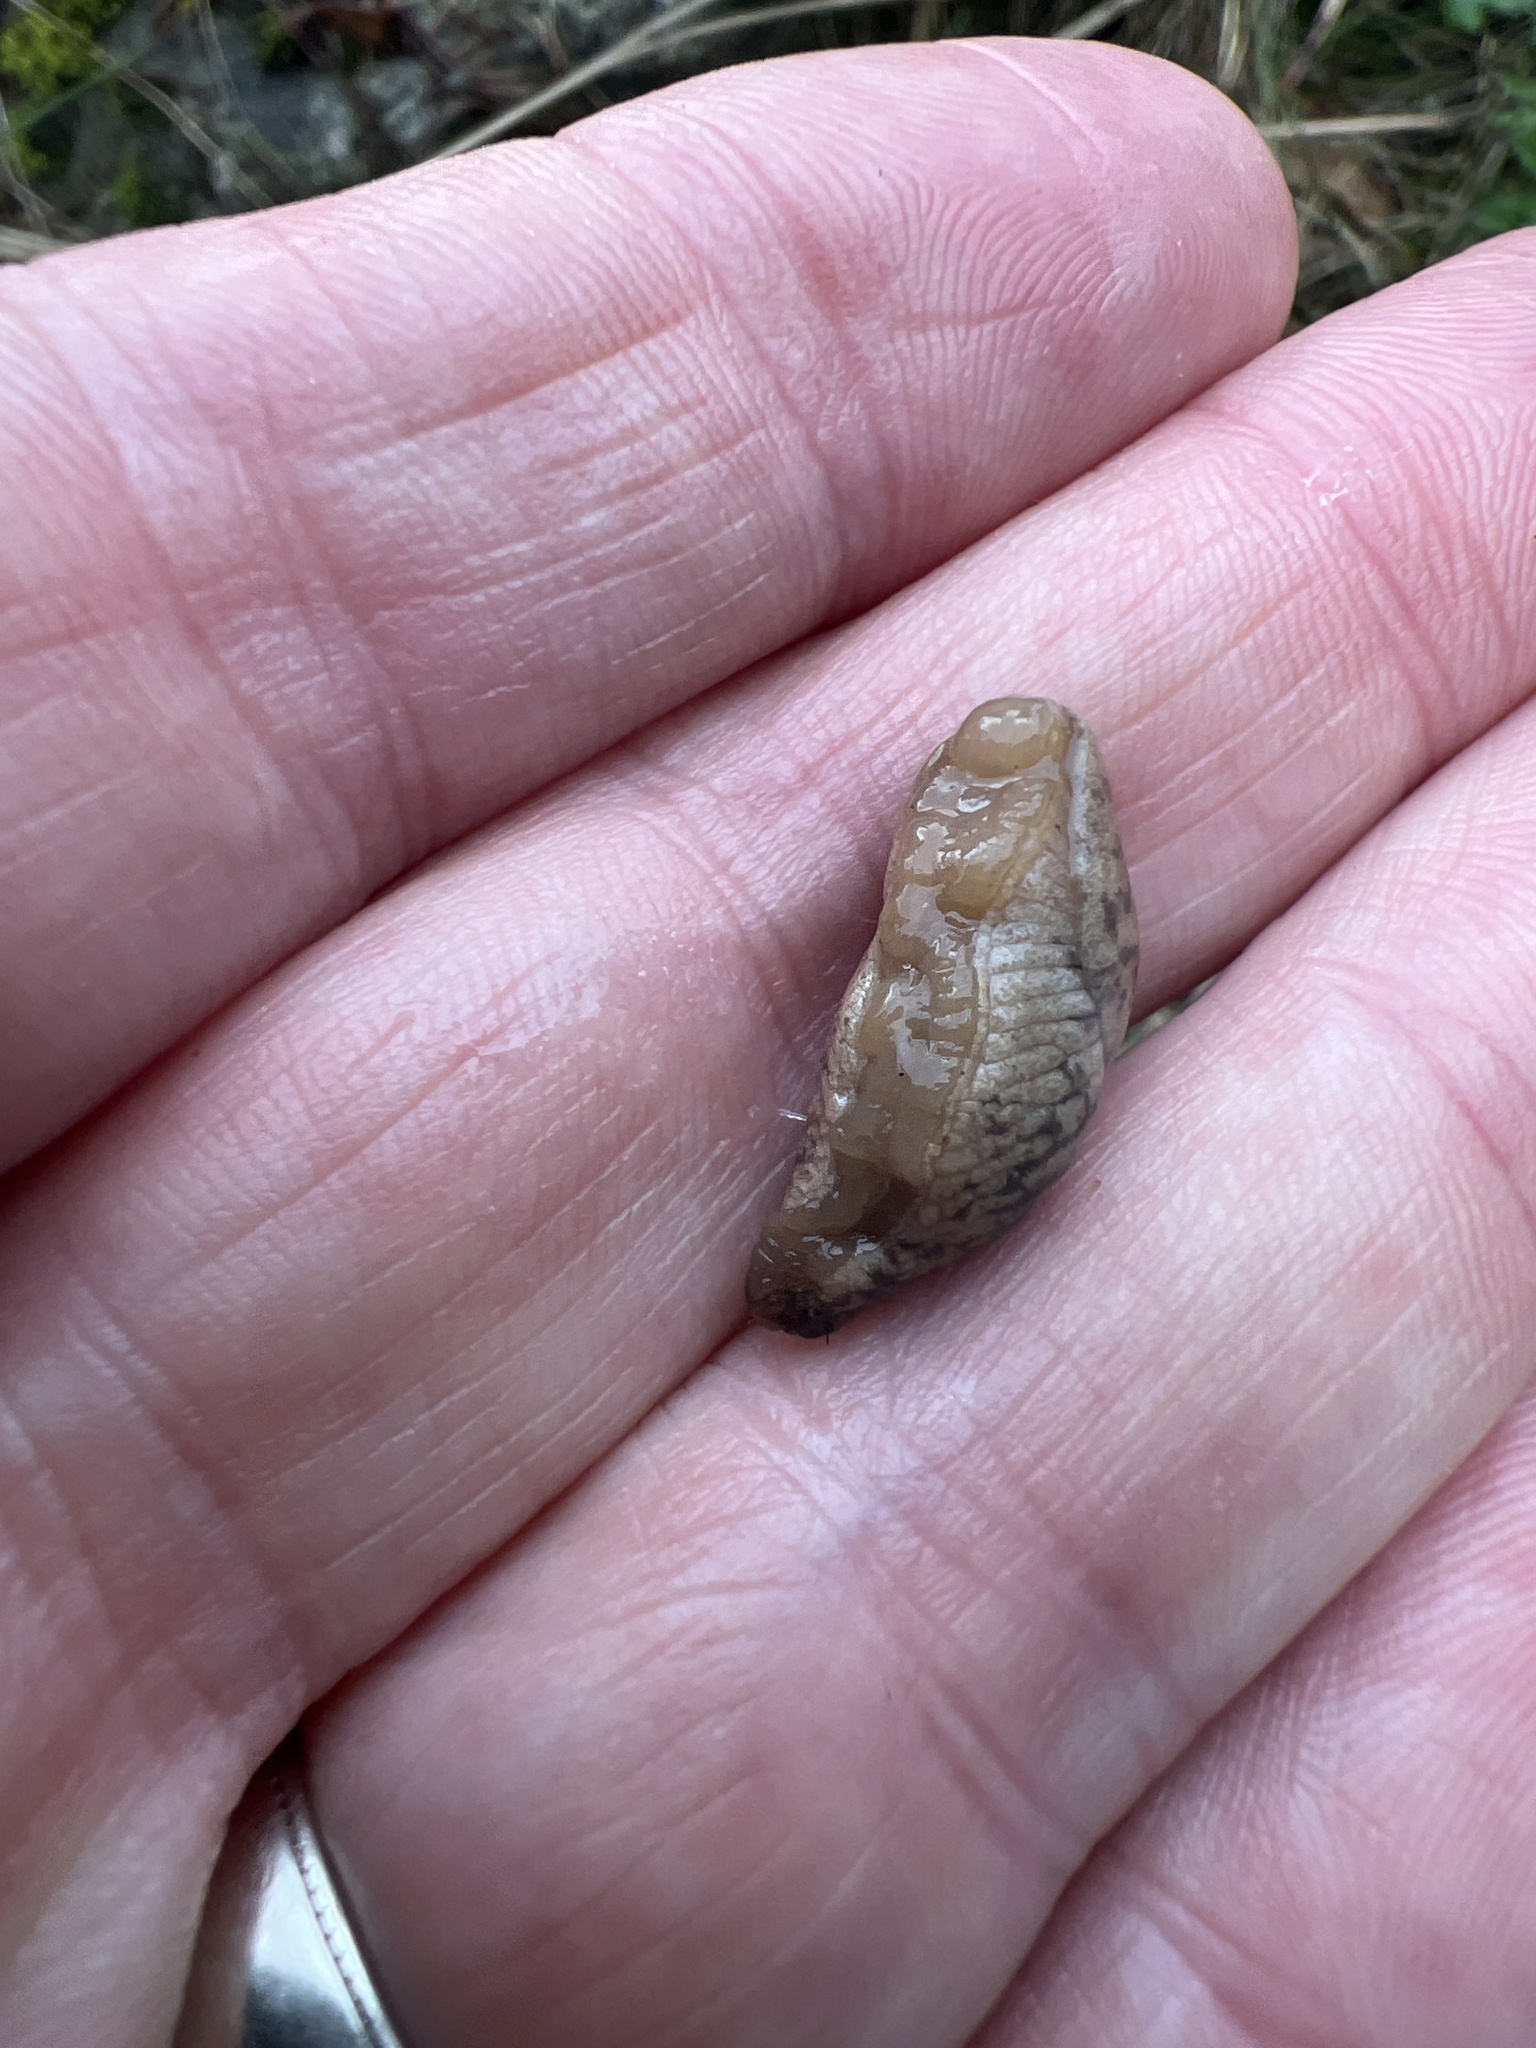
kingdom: Animalia
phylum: Mollusca
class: Gastropoda
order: Stylommatophora
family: Agriolimacidae
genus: Deroceras
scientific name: Deroceras reticulatum
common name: Gray field slug
